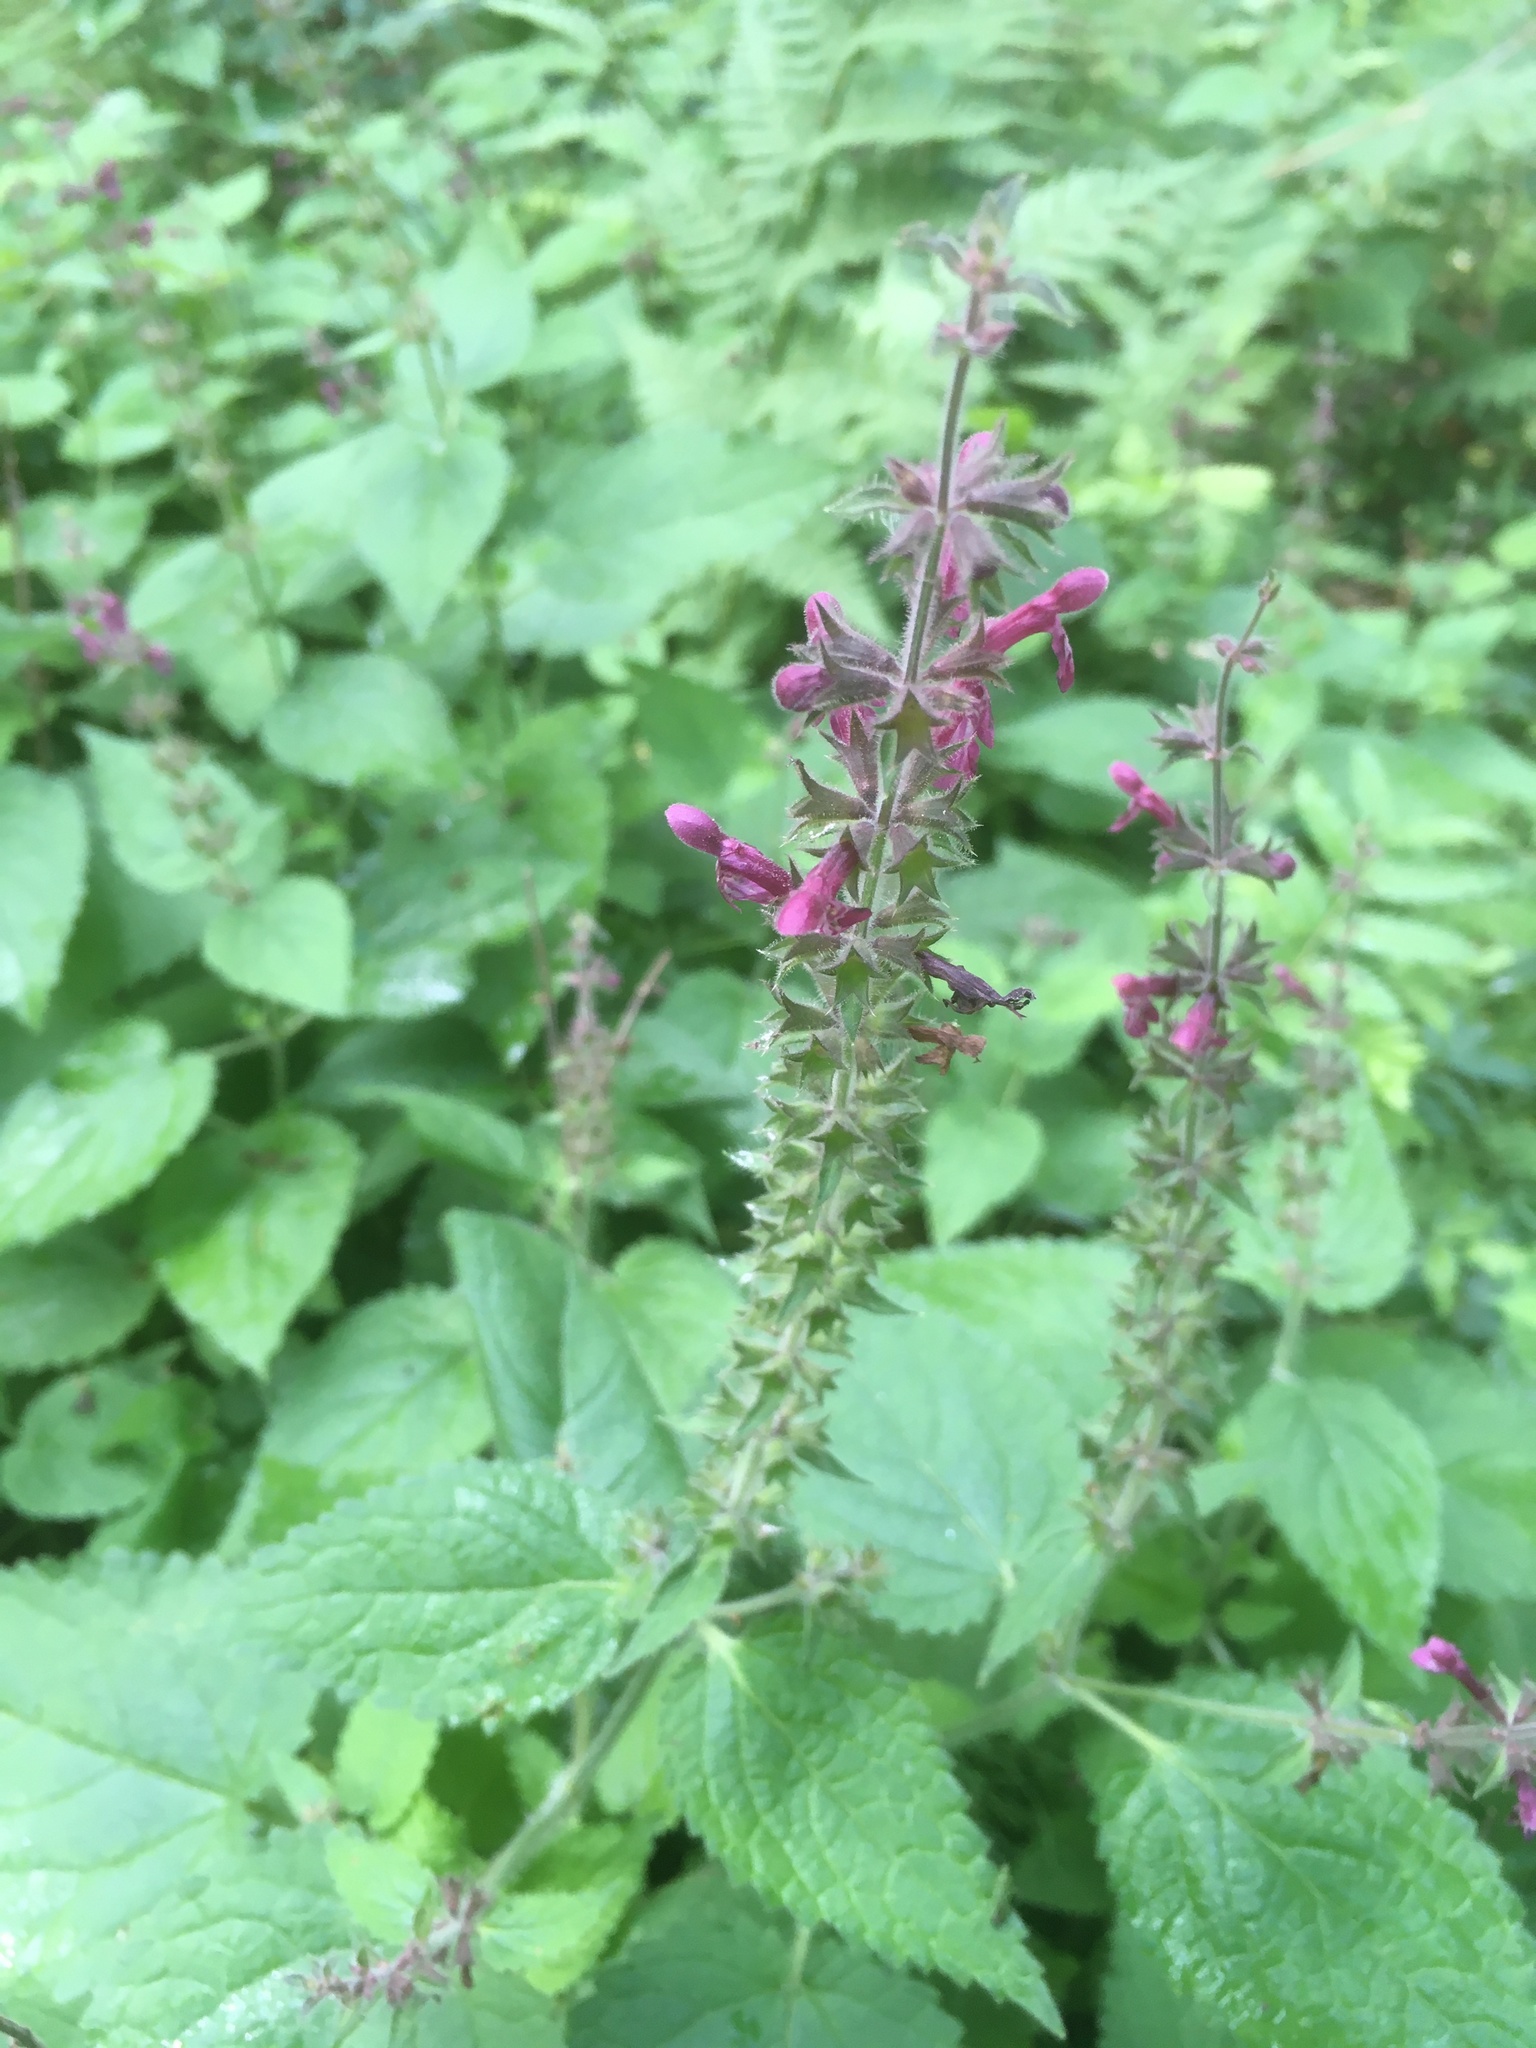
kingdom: Plantae
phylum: Tracheophyta
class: Magnoliopsida
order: Lamiales
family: Lamiaceae
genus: Stachys
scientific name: Stachys sylvatica
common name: Hedge woundwort
